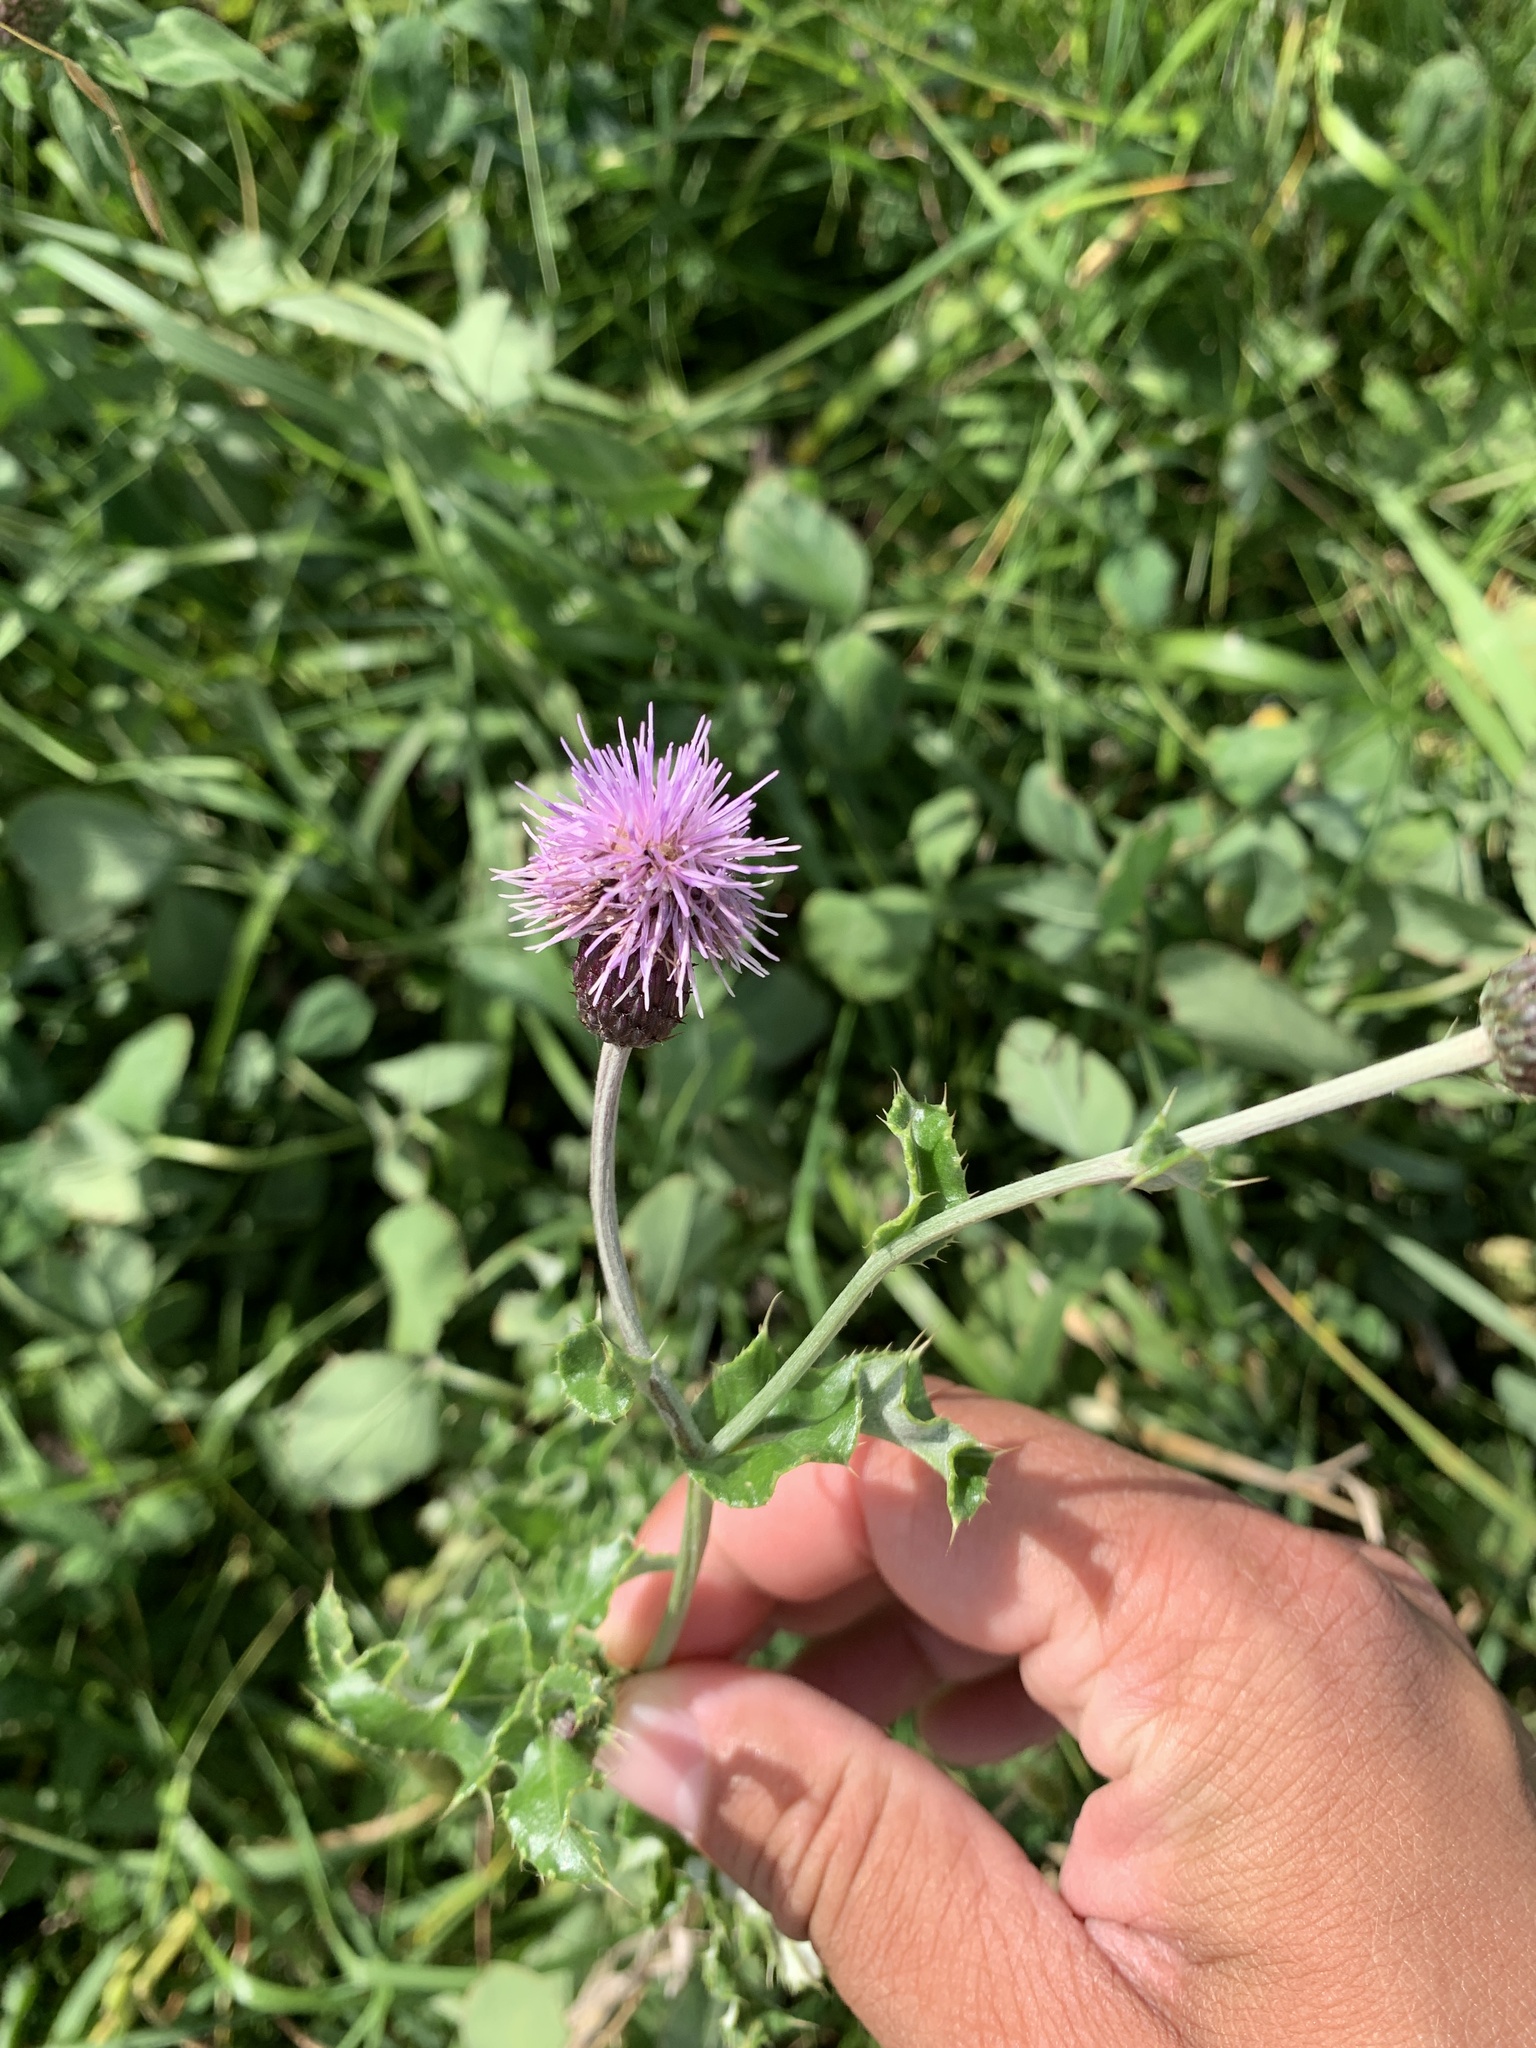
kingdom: Plantae
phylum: Tracheophyta
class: Magnoliopsida
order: Asterales
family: Asteraceae
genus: Cirsium
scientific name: Cirsium arvense
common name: Creeping thistle
